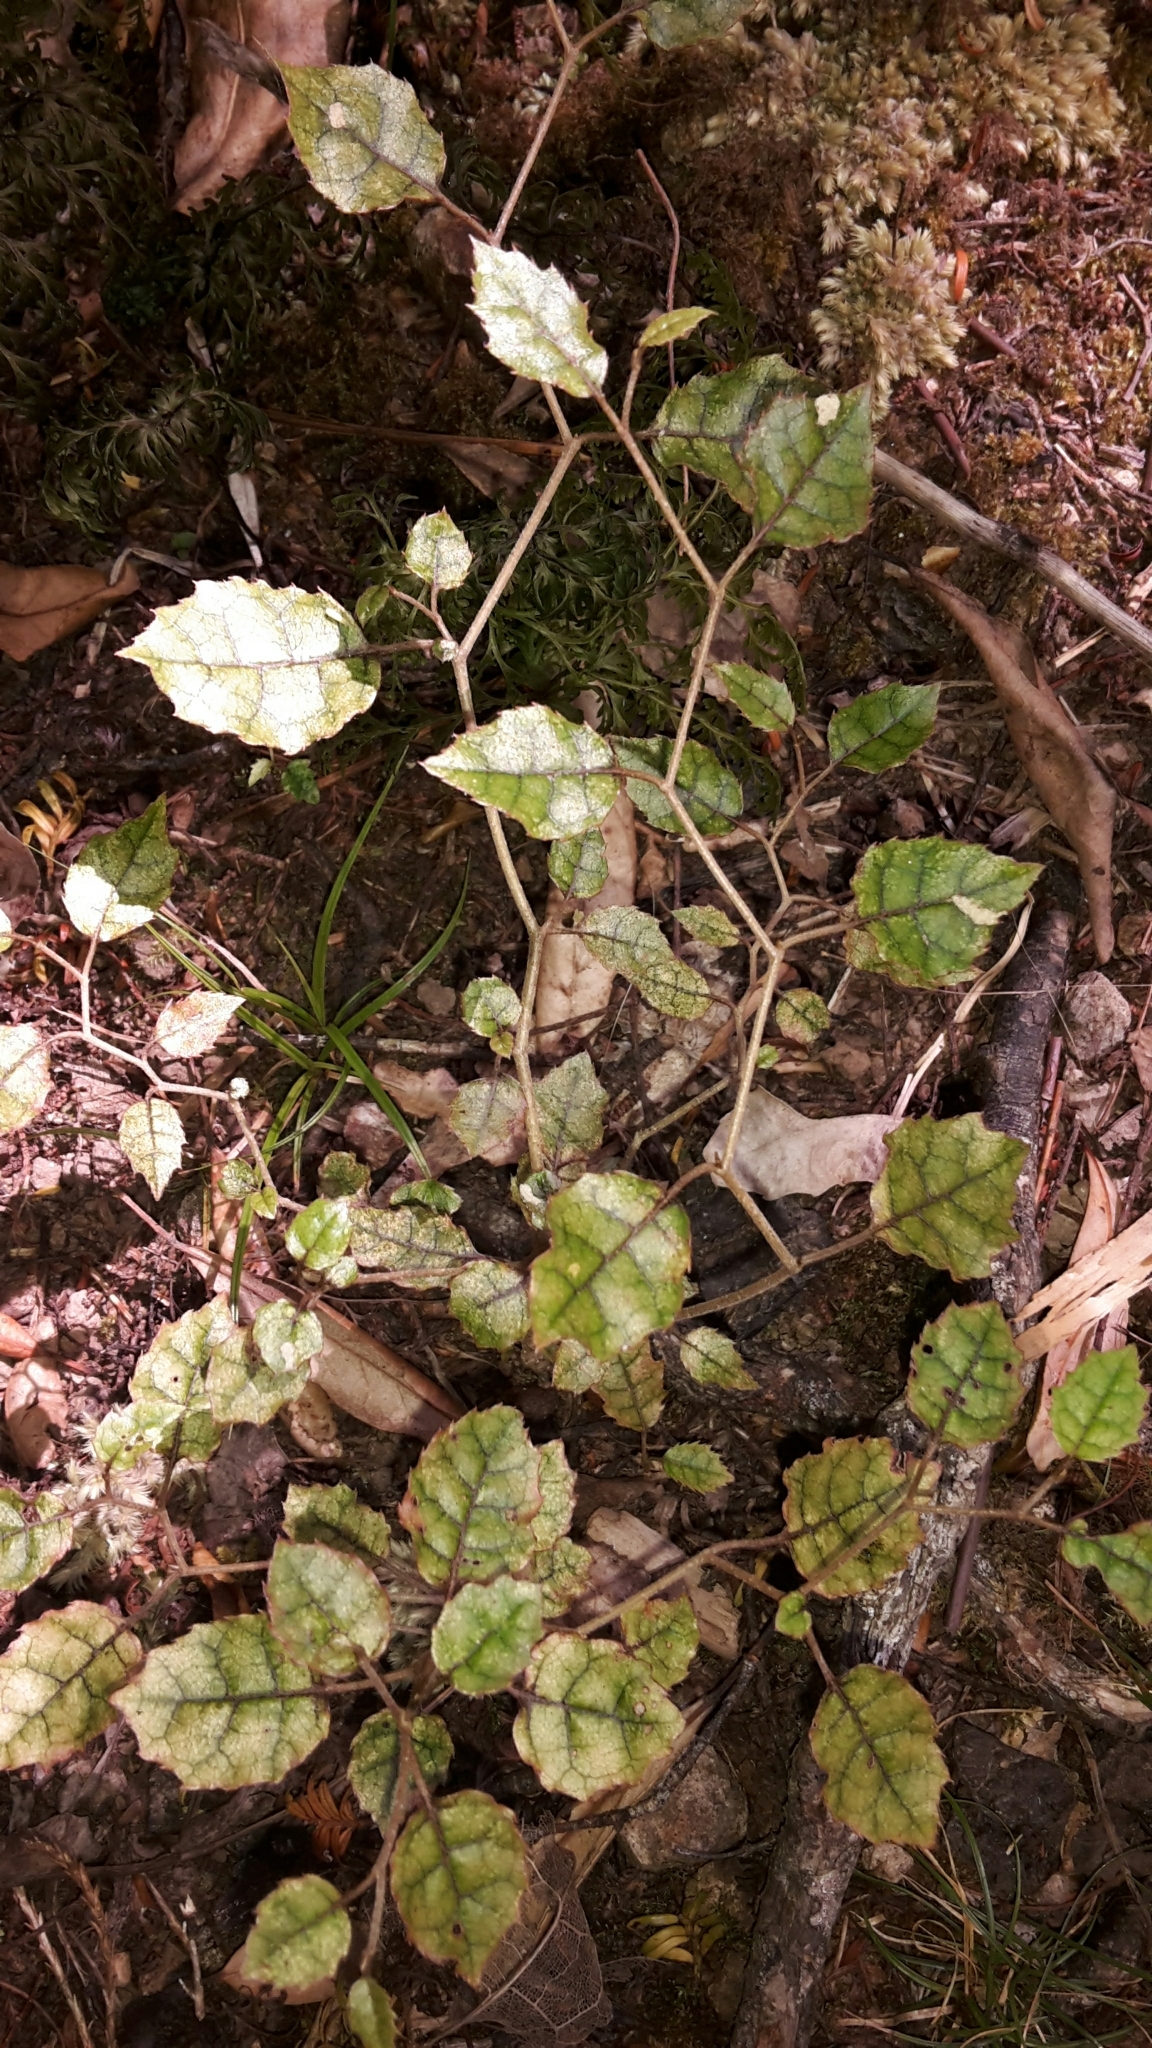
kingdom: Plantae
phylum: Tracheophyta
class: Magnoliopsida
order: Asterales
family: Rousseaceae
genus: Carpodetus
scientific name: Carpodetus serratus
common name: White mapau
